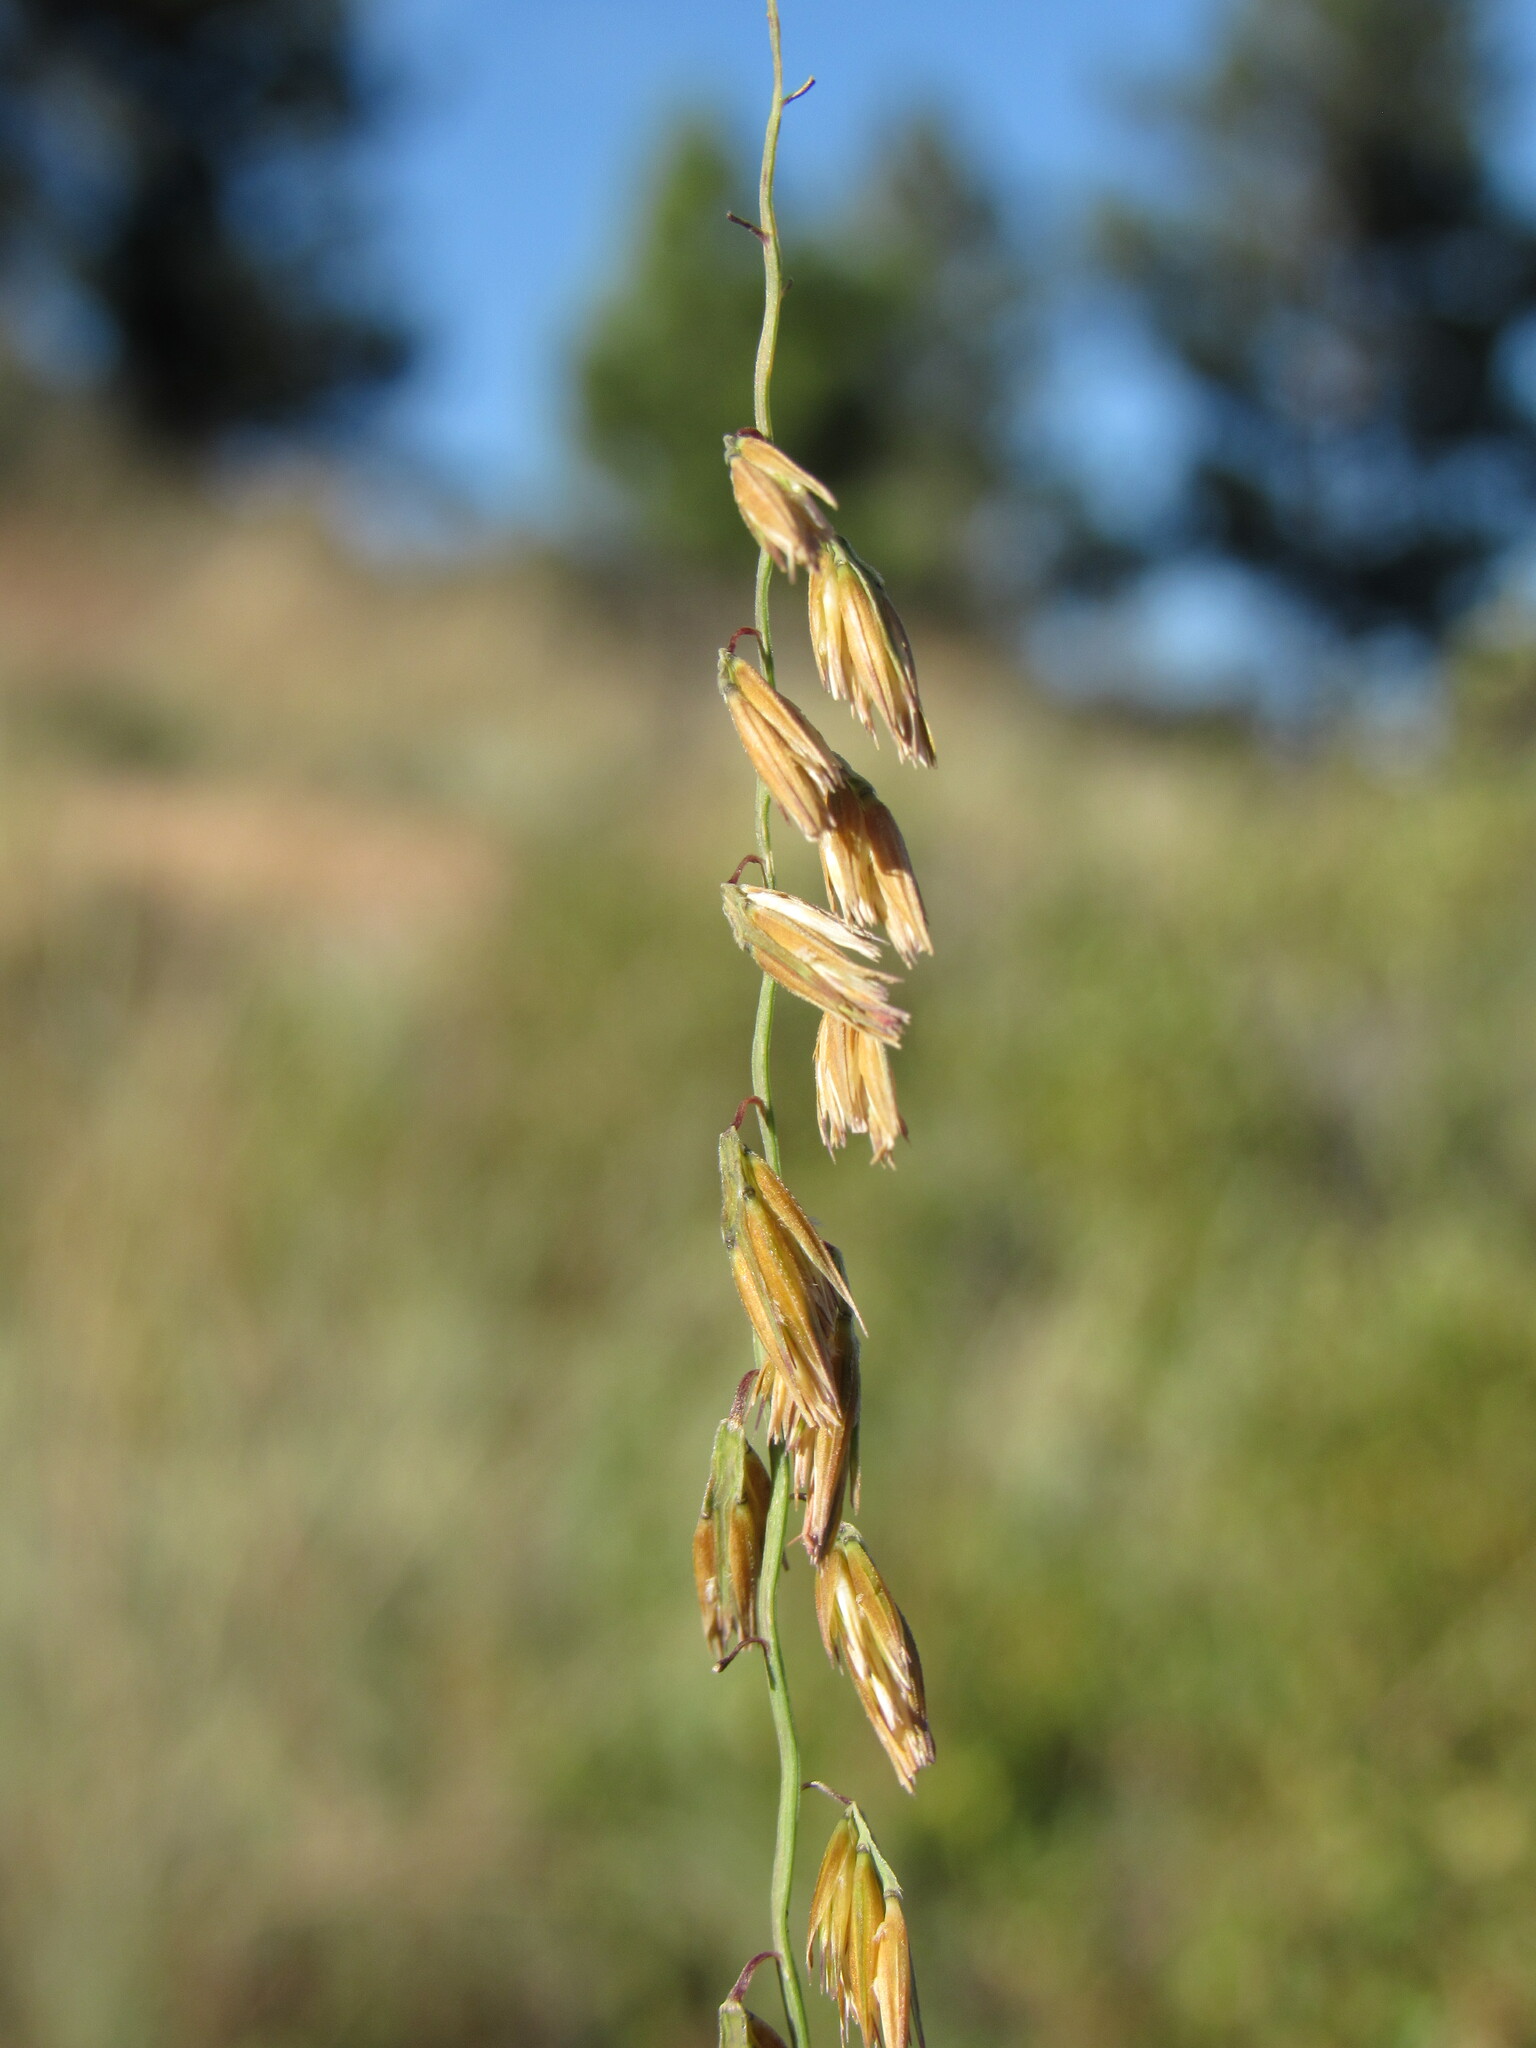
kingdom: Plantae
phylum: Tracheophyta
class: Liliopsida
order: Poales
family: Poaceae
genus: Bouteloua
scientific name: Bouteloua curtipendula
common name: Side-oats grama
